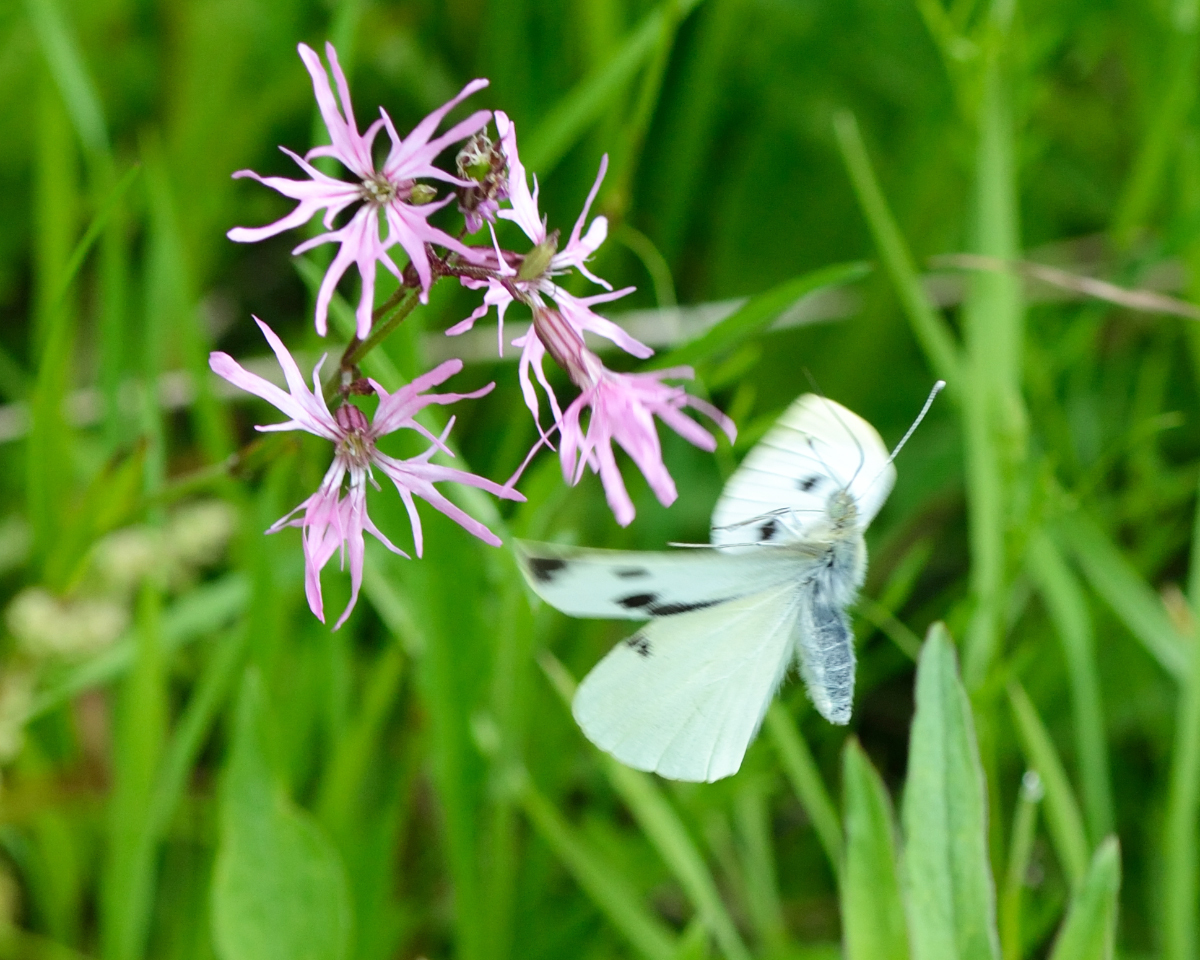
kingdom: Animalia
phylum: Arthropoda
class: Insecta
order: Lepidoptera
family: Pieridae
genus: Pieris
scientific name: Pieris brassicae
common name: Large white
